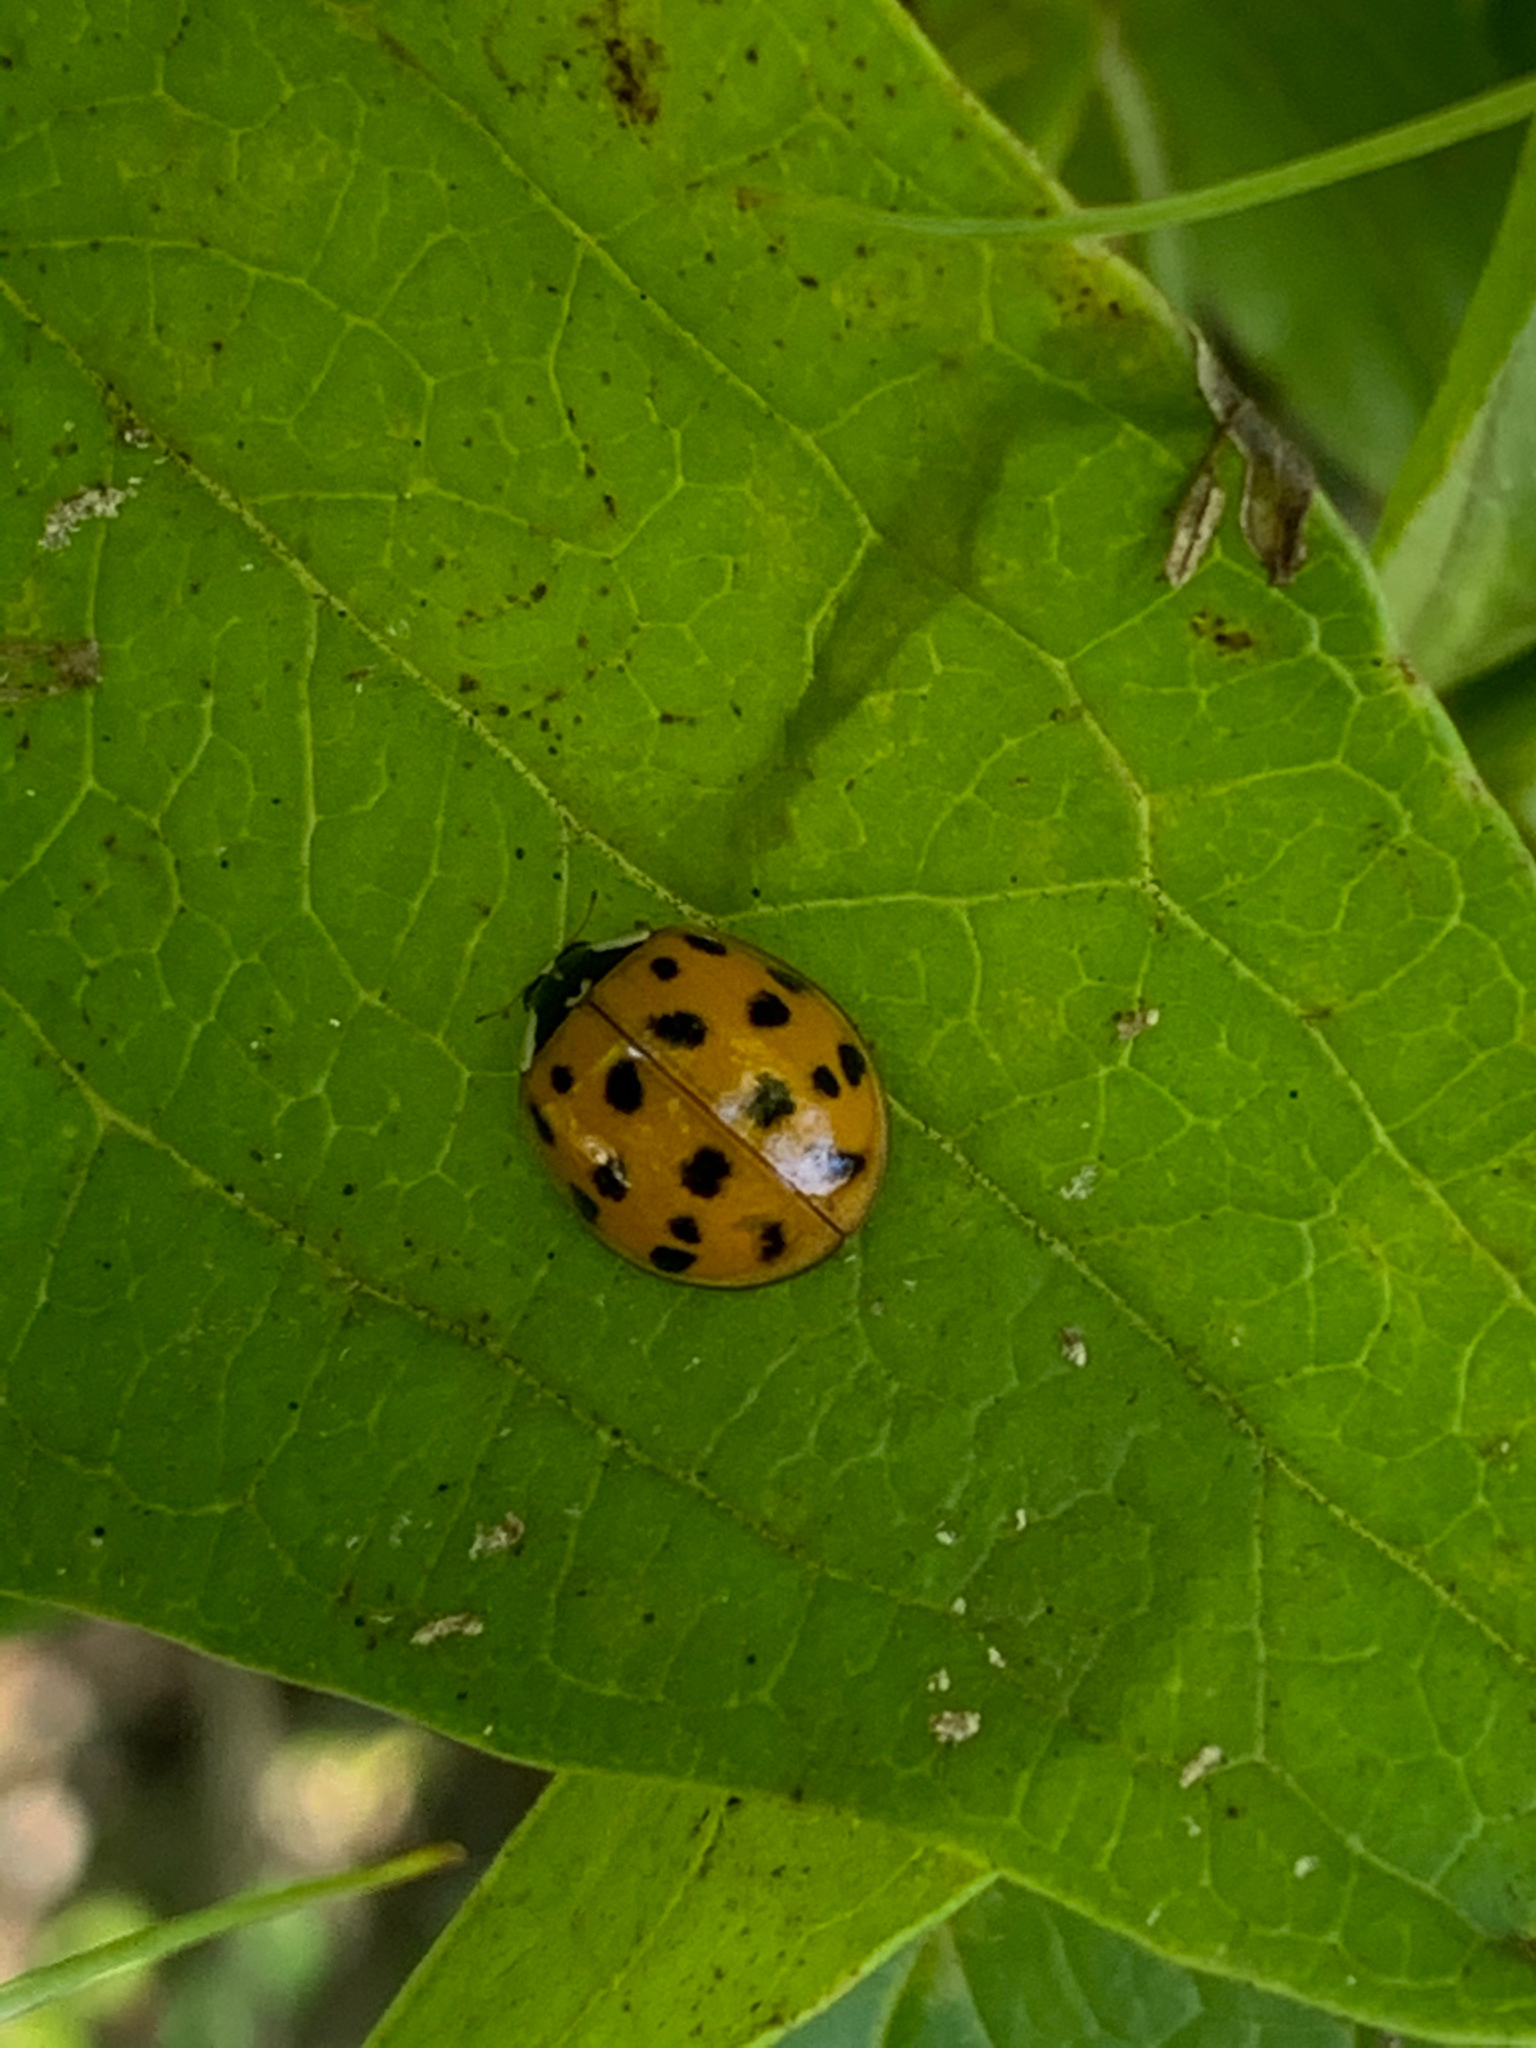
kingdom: Animalia
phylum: Arthropoda
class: Insecta
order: Coleoptera
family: Coccinellidae
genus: Harmonia
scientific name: Harmonia axyridis
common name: Harlequin ladybird
